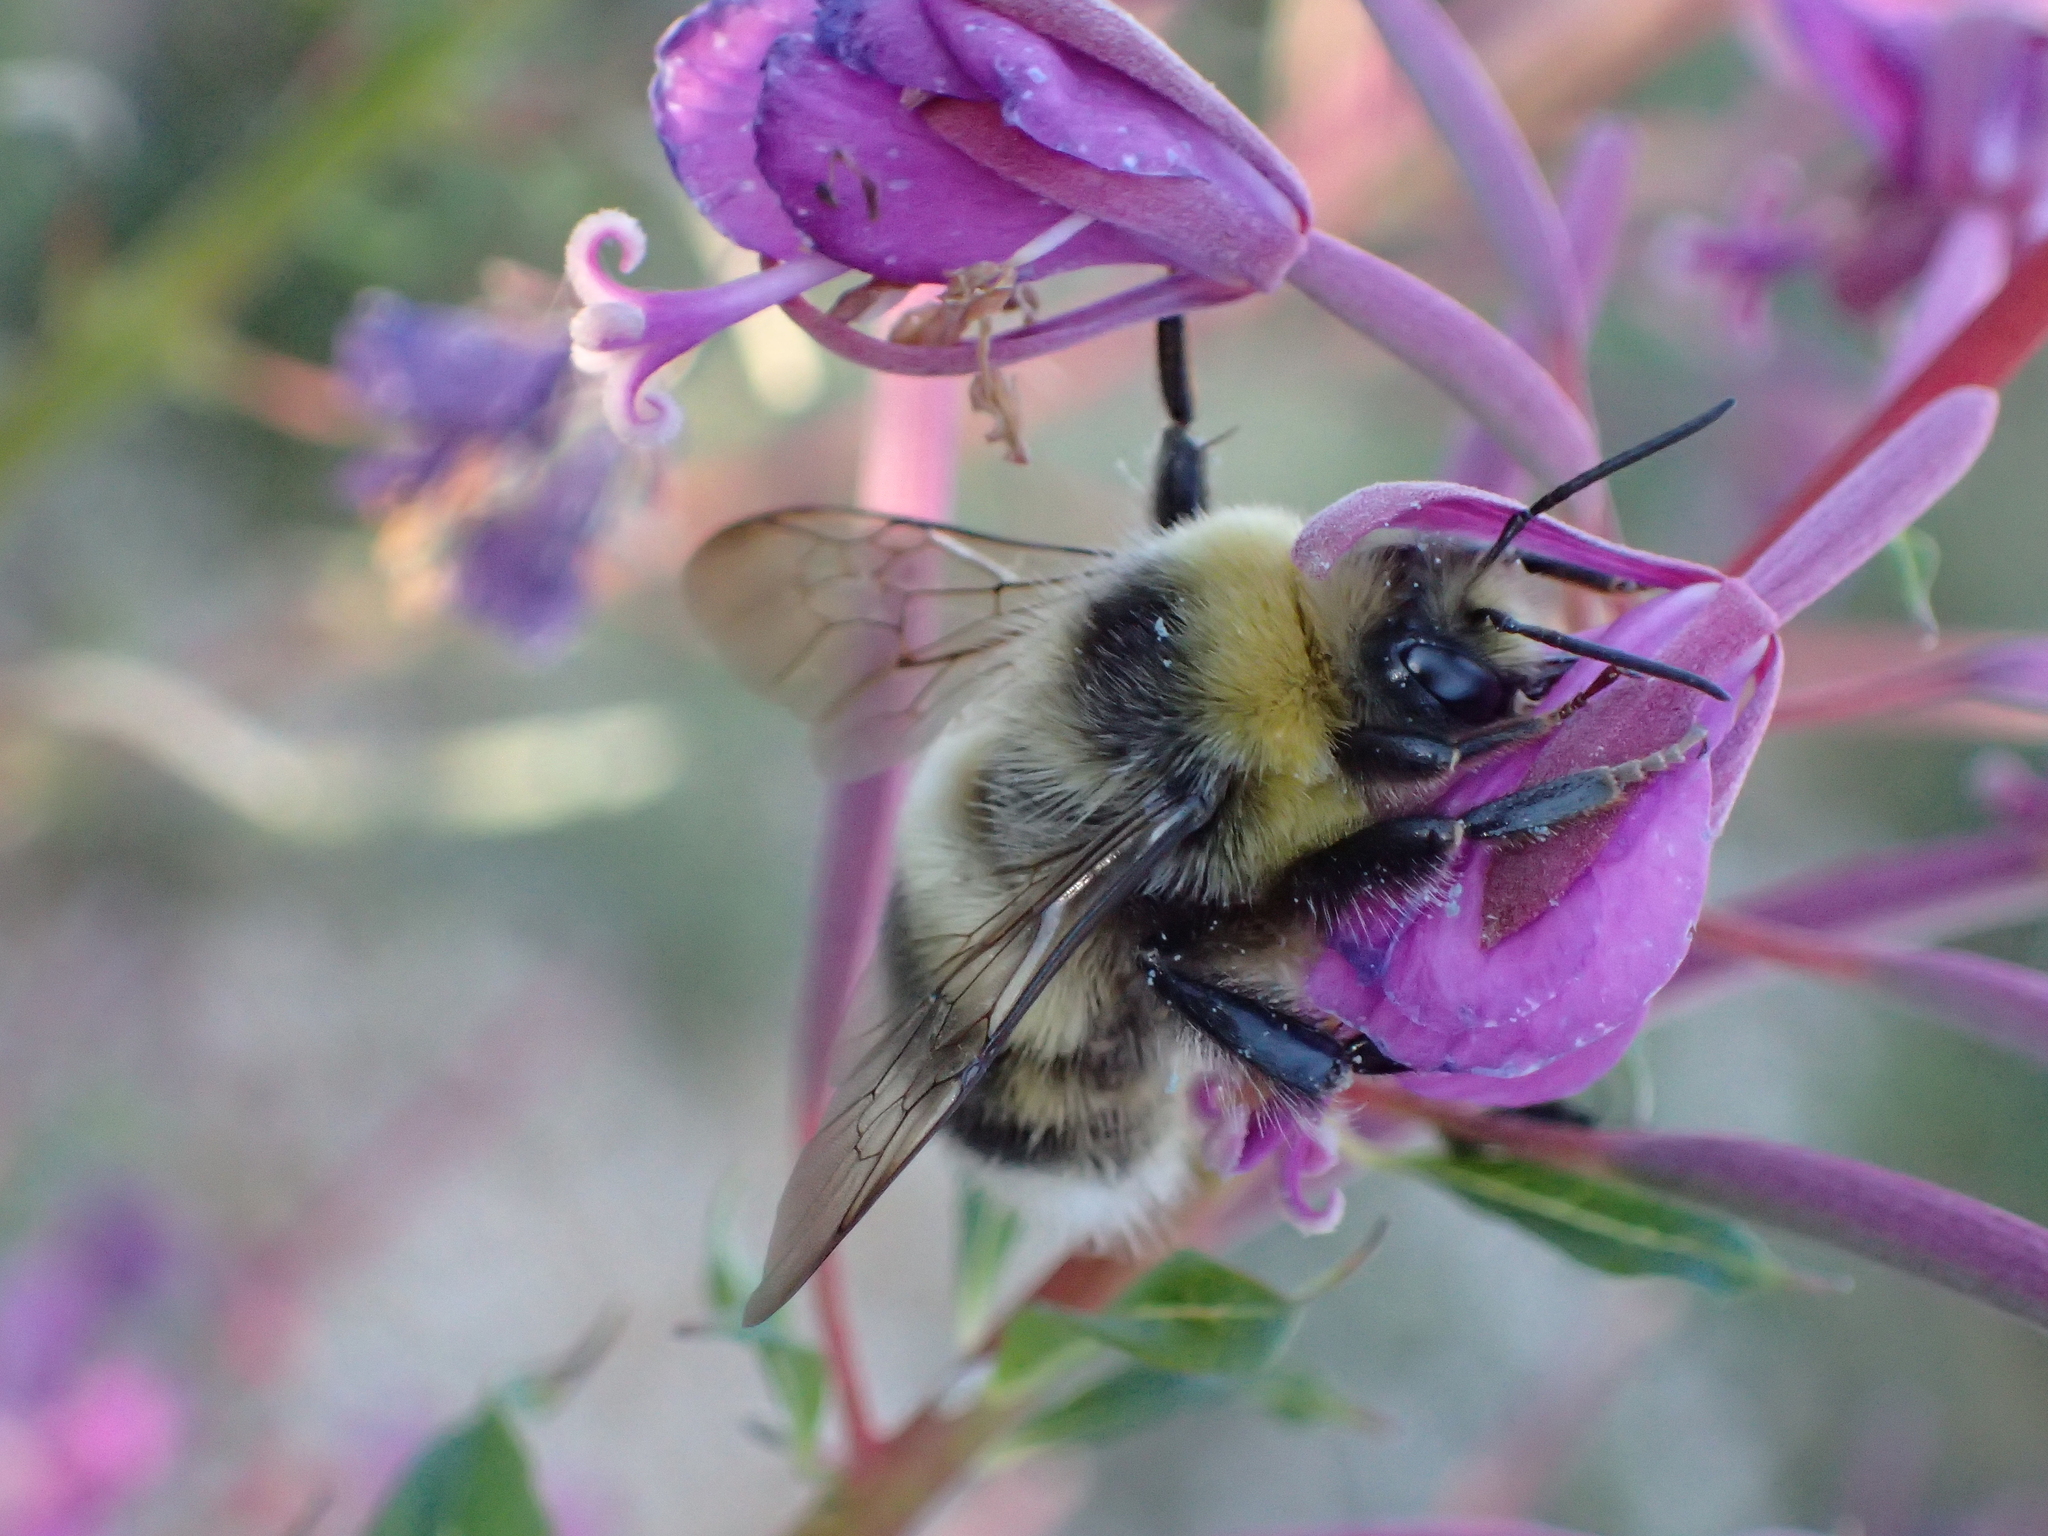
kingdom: Animalia
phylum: Arthropoda
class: Insecta
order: Hymenoptera
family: Apidae
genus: Bombus
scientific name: Bombus lucorum
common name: White-tailed bumblebee
